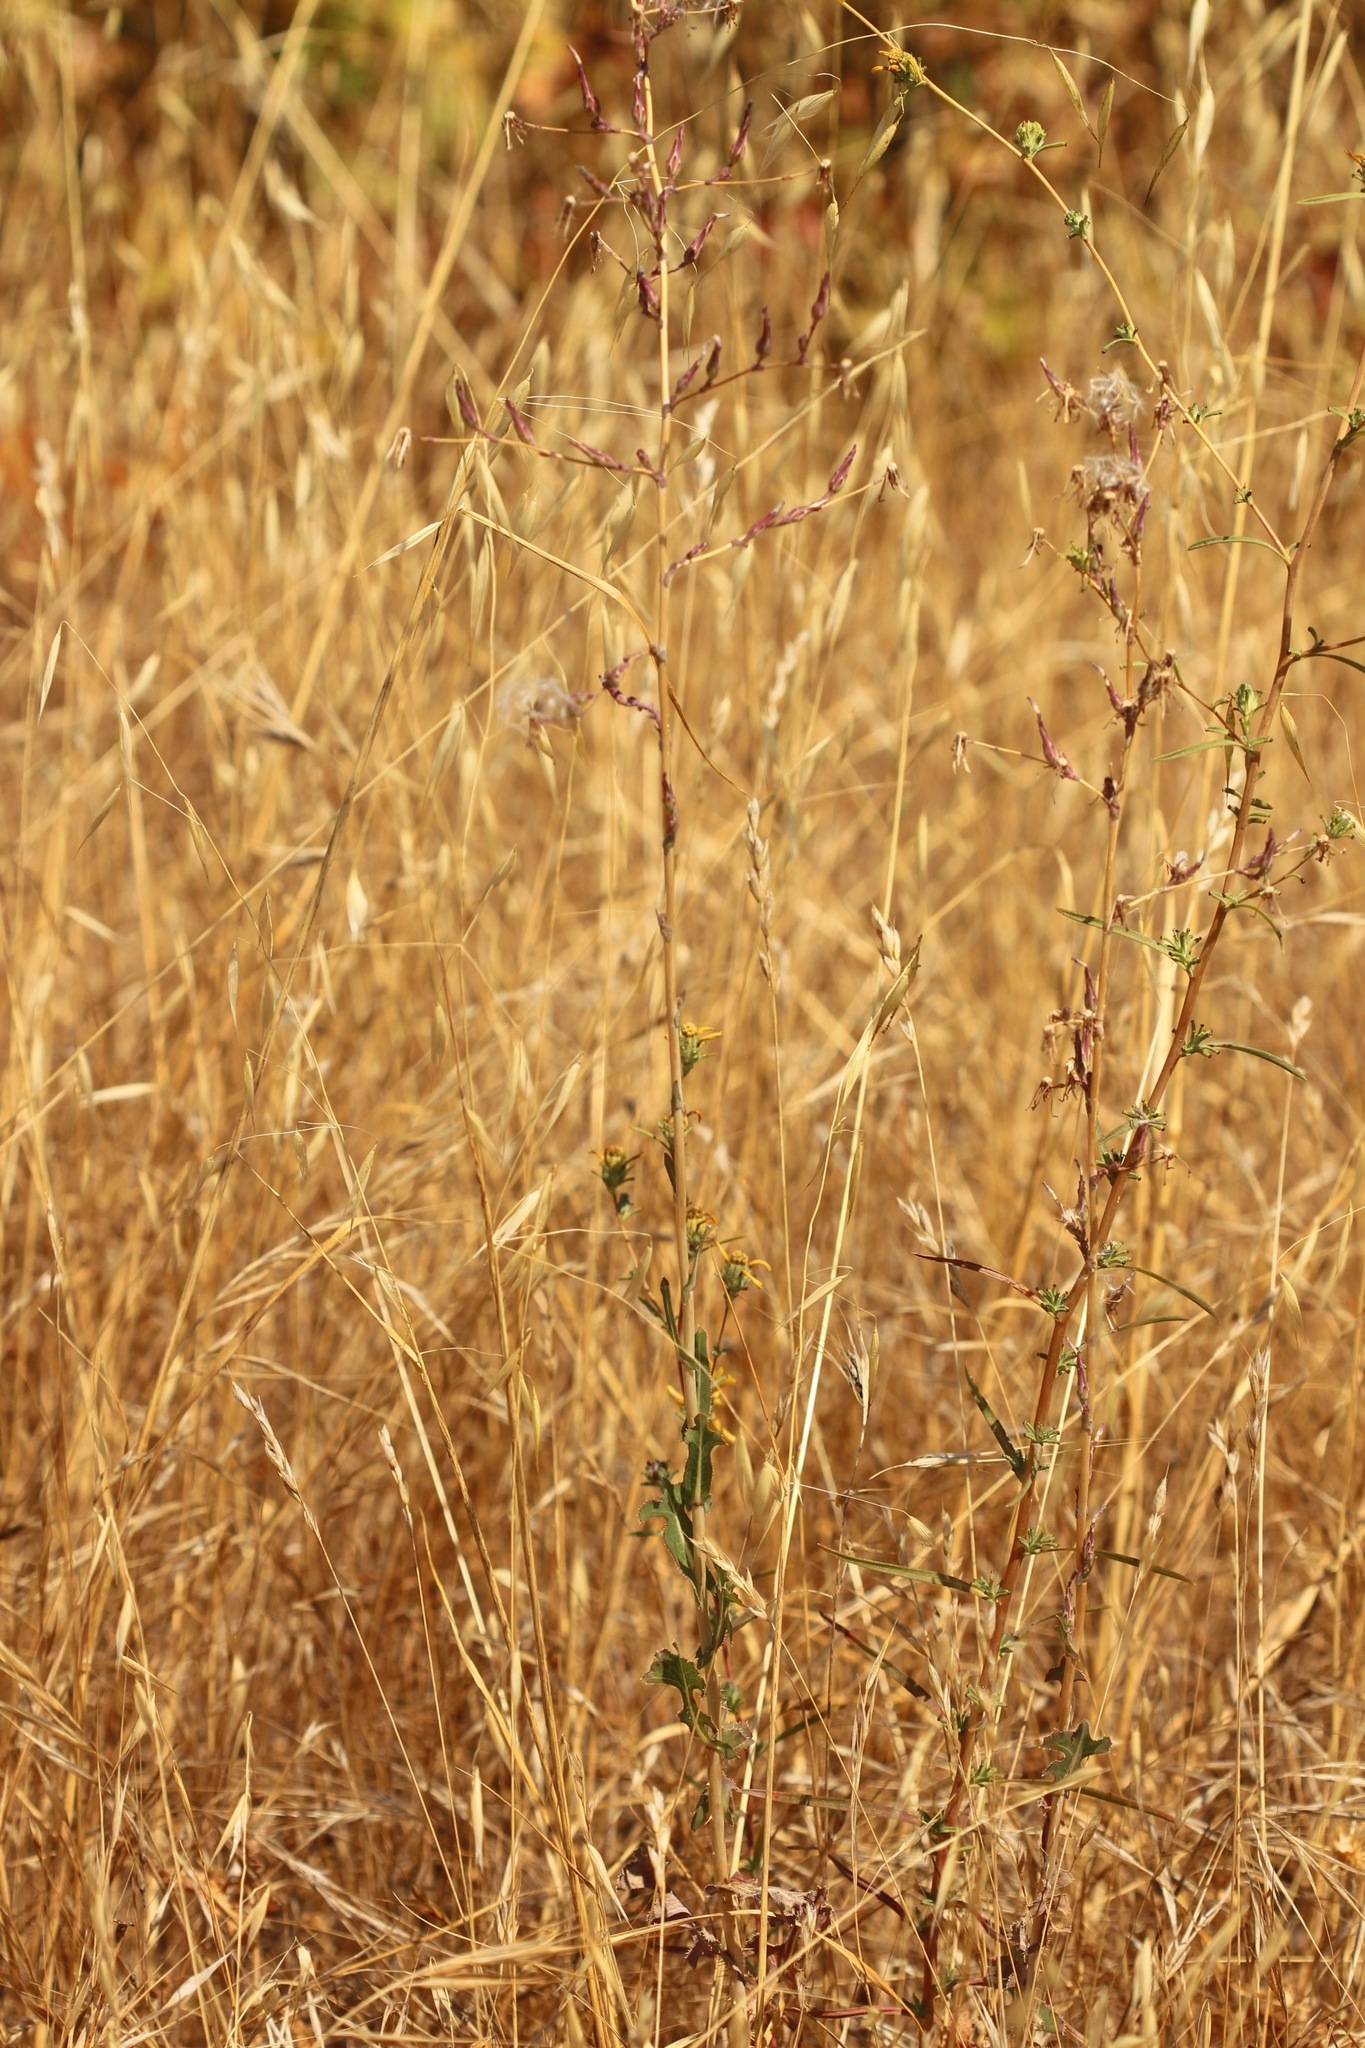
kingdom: Plantae
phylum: Tracheophyta
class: Magnoliopsida
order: Asterales
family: Asteraceae
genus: Lactuca
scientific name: Lactuca serriola
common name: Prickly lettuce
